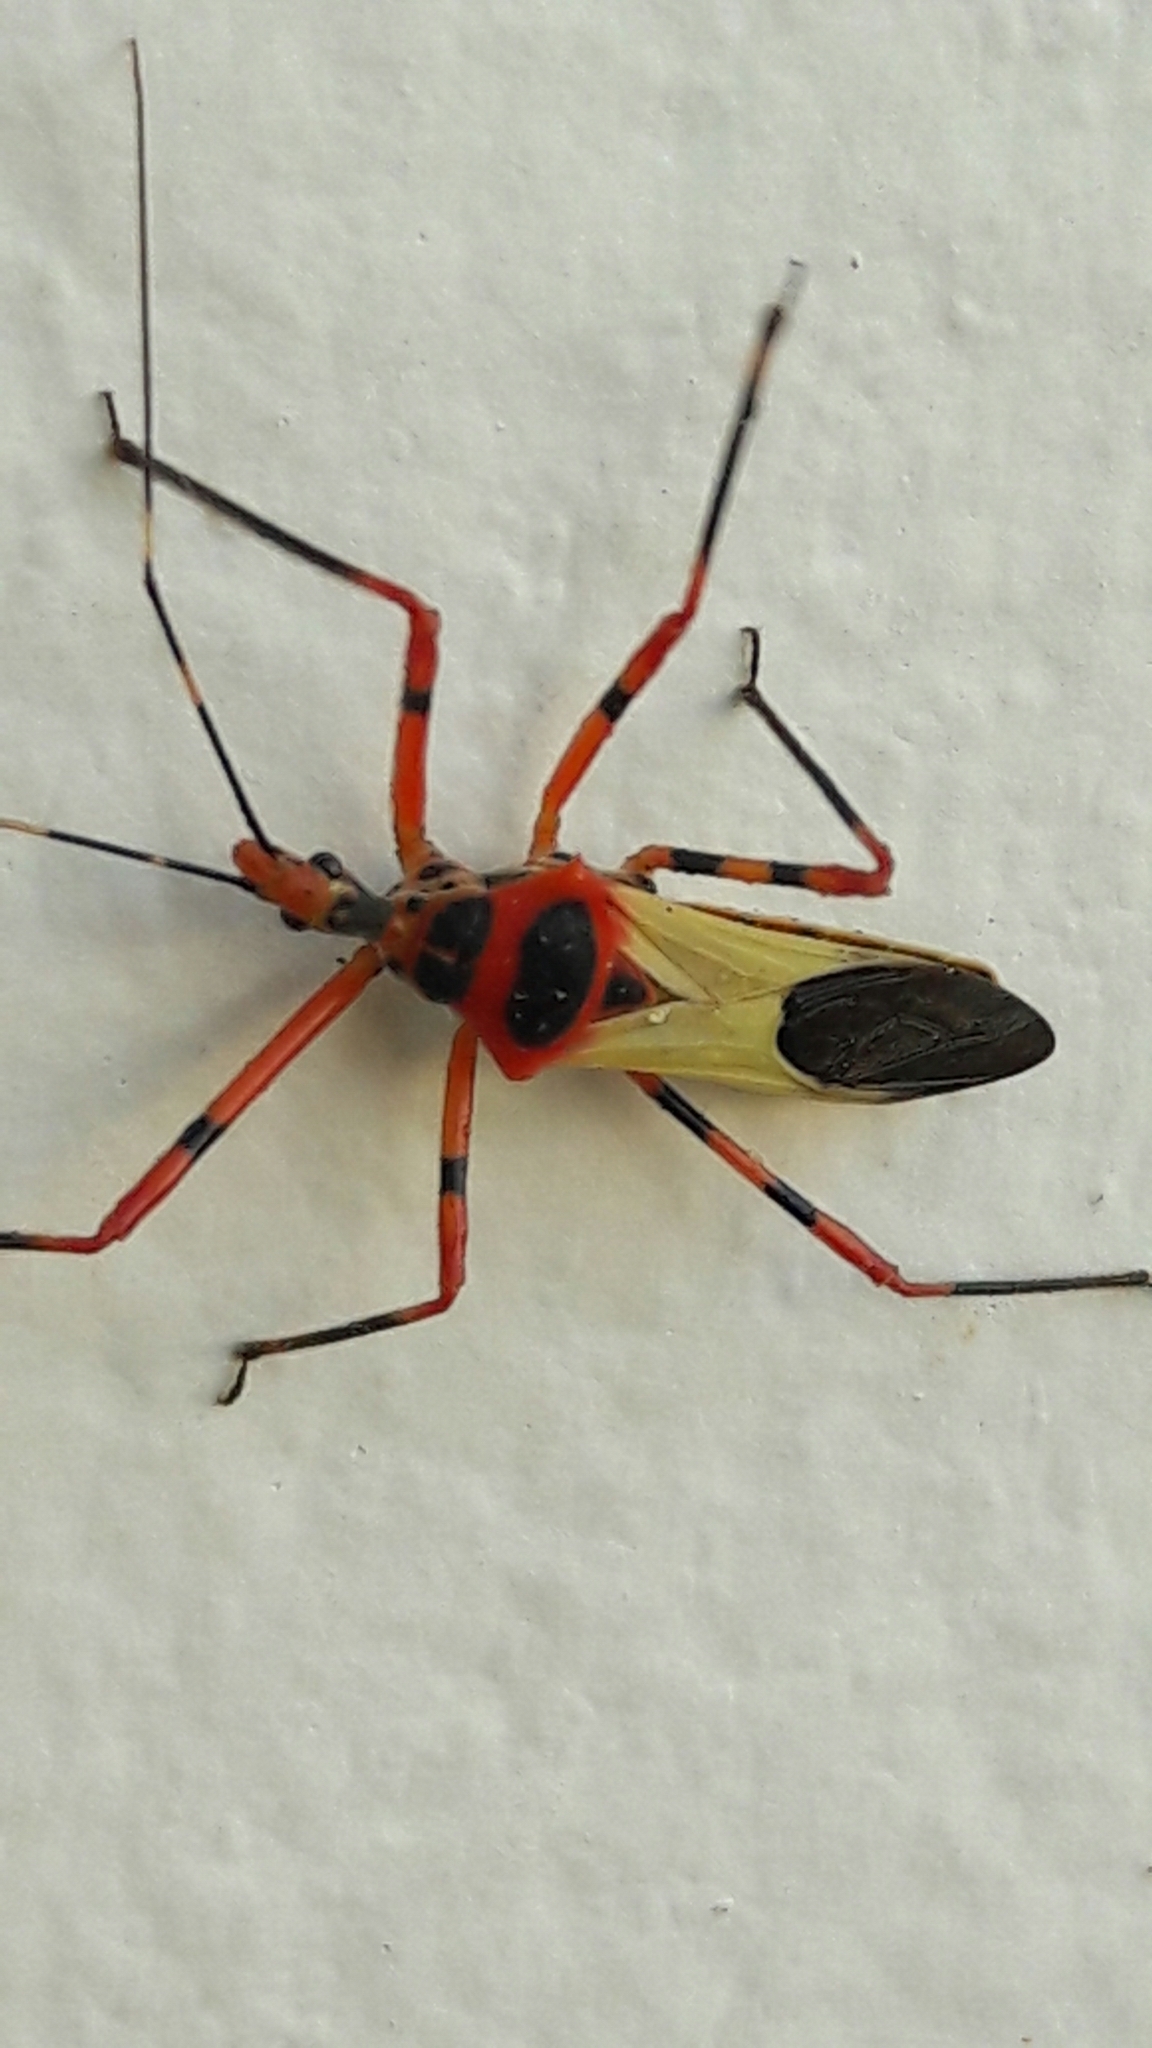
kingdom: Animalia
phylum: Arthropoda
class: Insecta
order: Hemiptera
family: Reduviidae
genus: Zelus
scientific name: Zelus armillatus
